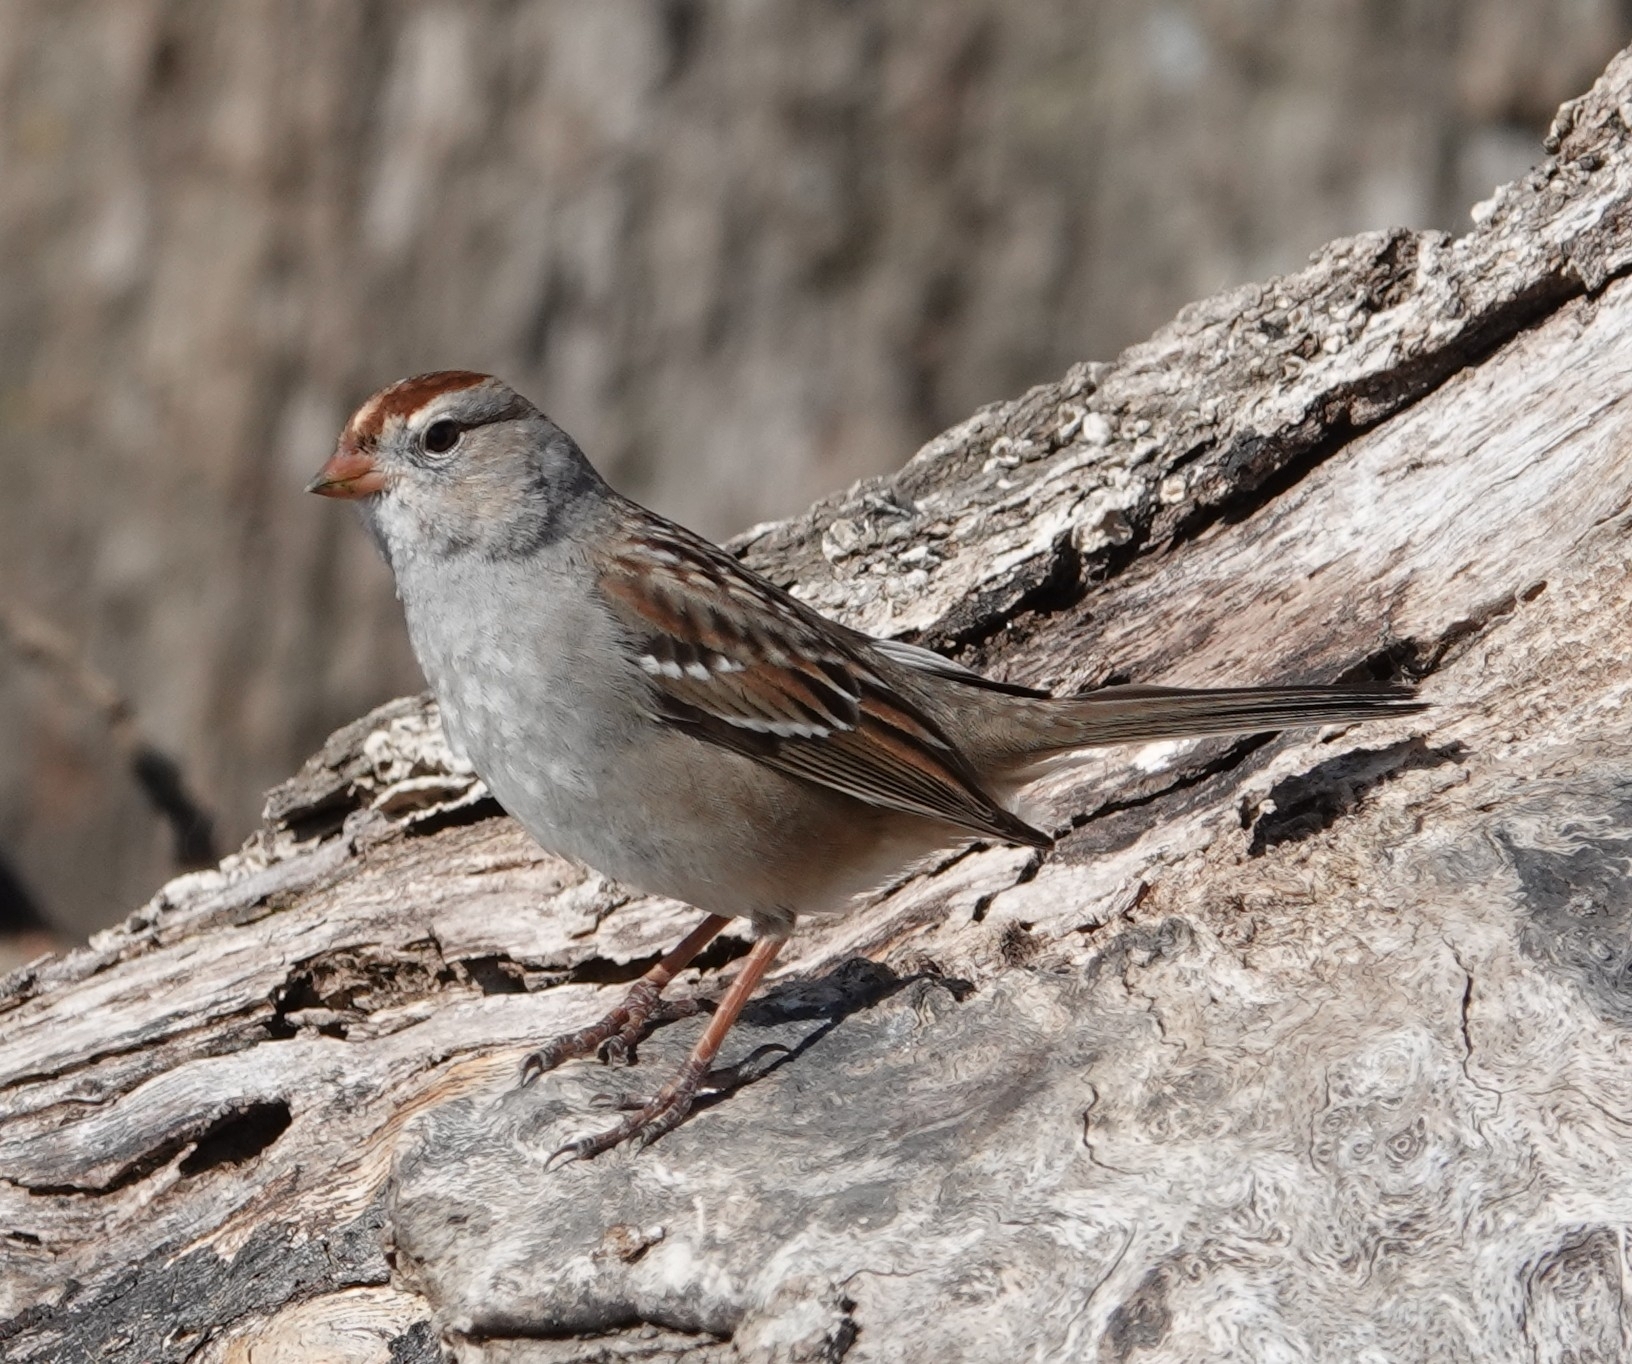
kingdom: Animalia
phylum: Chordata
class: Aves
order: Passeriformes
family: Passerellidae
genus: Zonotrichia
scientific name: Zonotrichia leucophrys
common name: White-crowned sparrow
